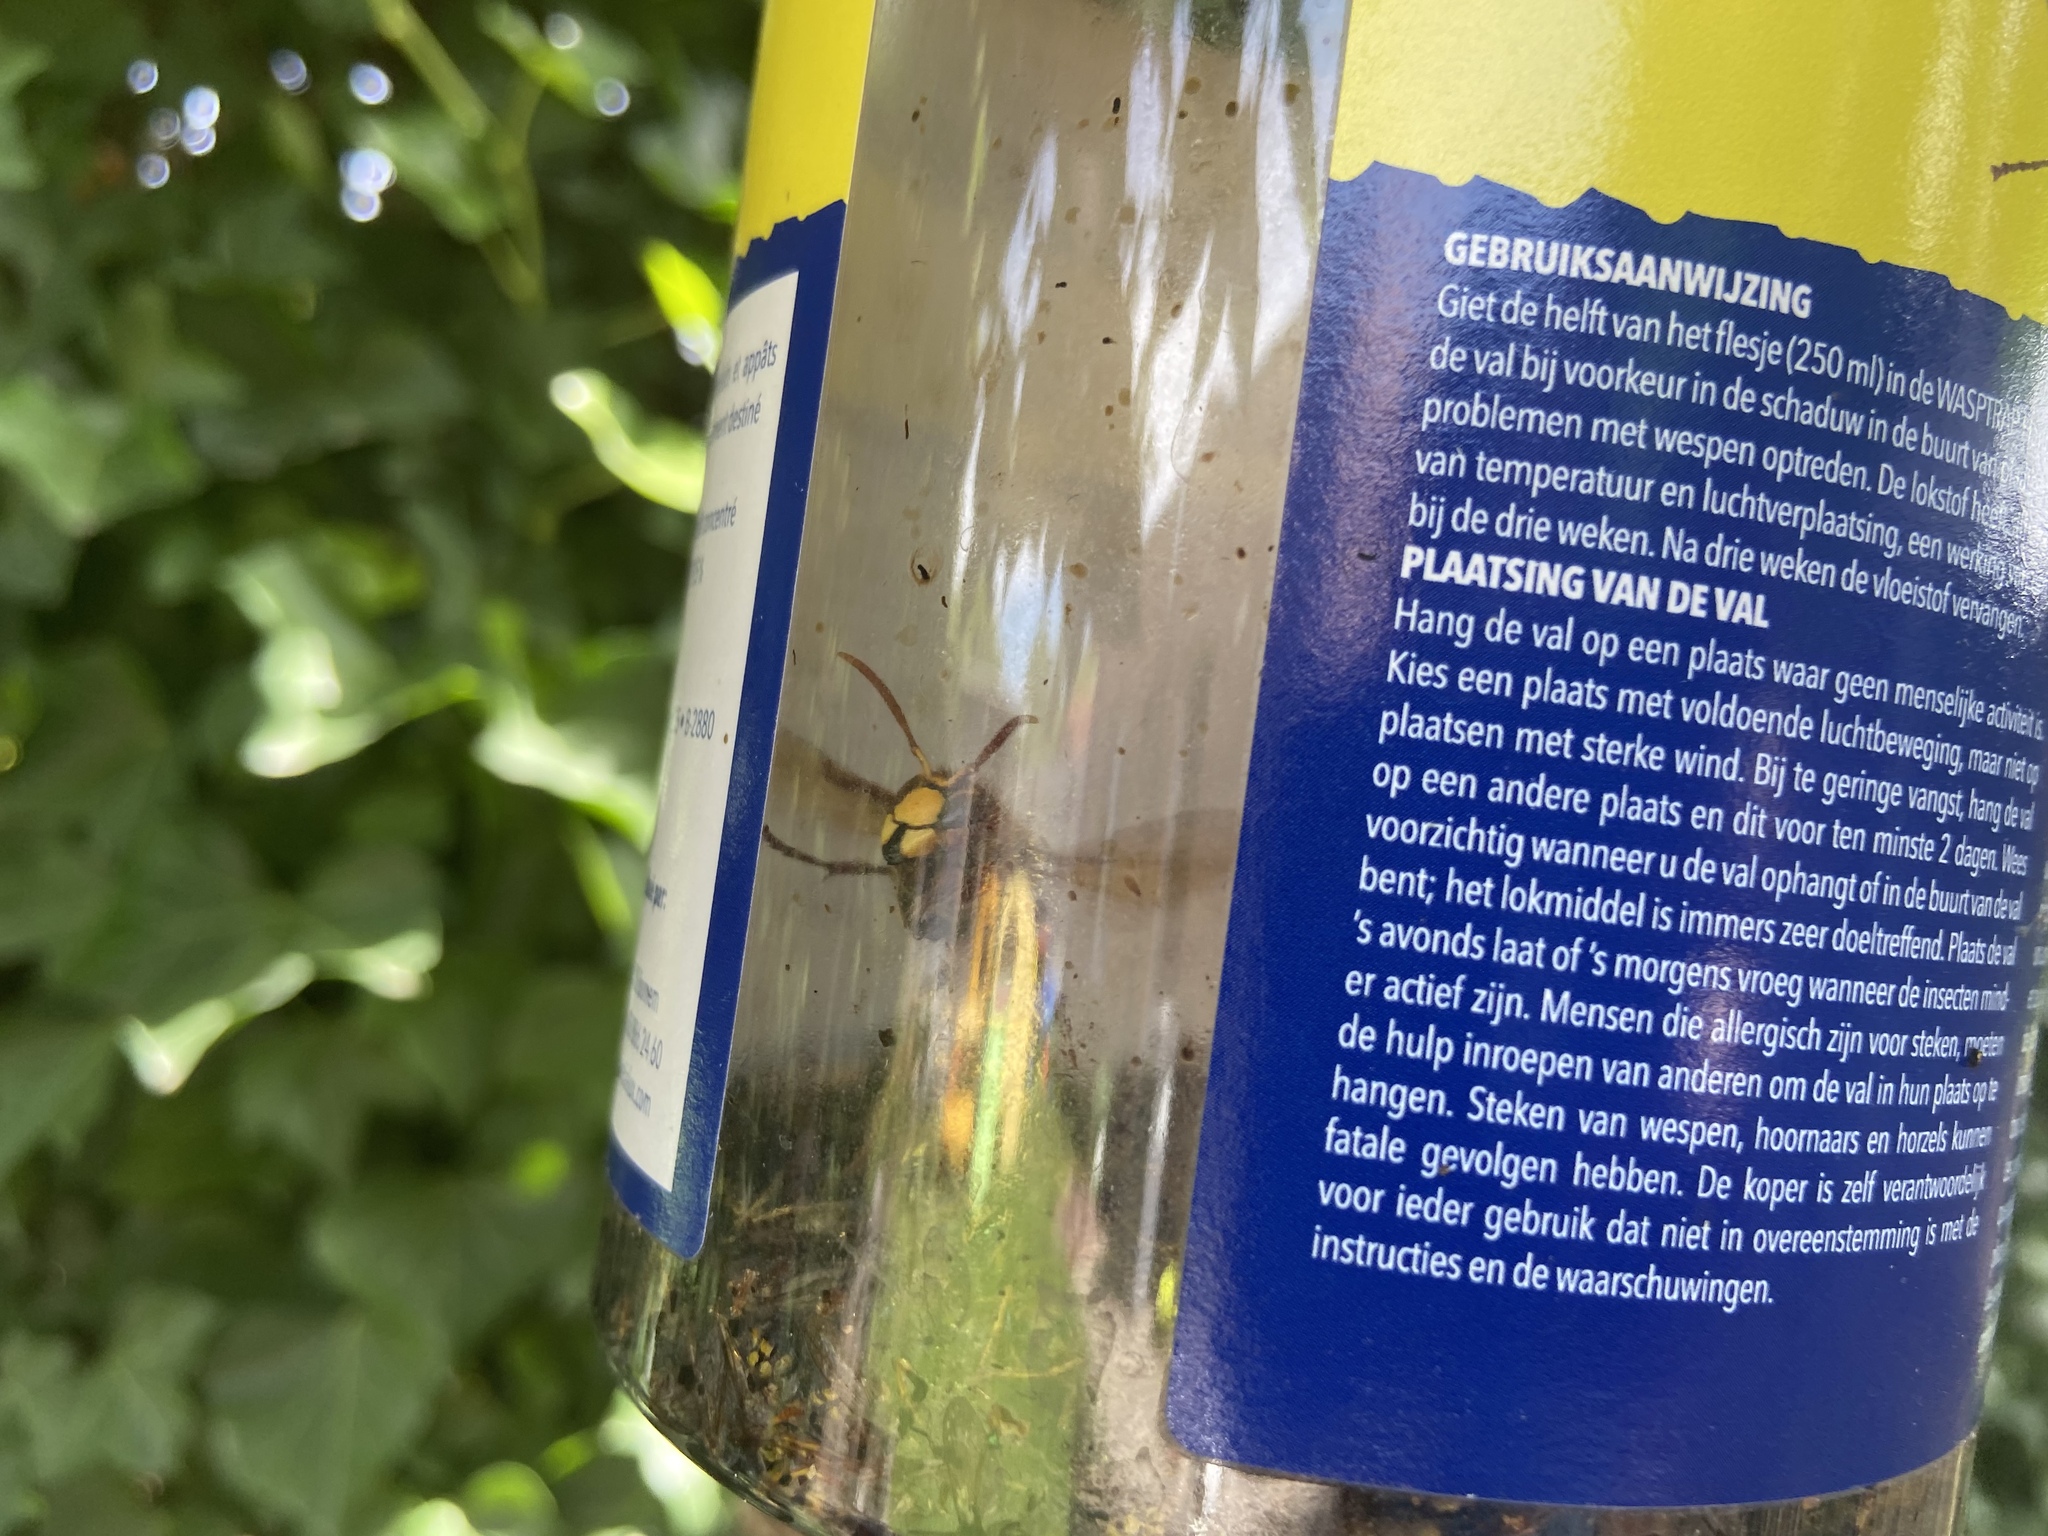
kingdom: Animalia
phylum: Arthropoda
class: Insecta
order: Hymenoptera
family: Vespidae
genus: Vespa
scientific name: Vespa crabro
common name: Hornet
